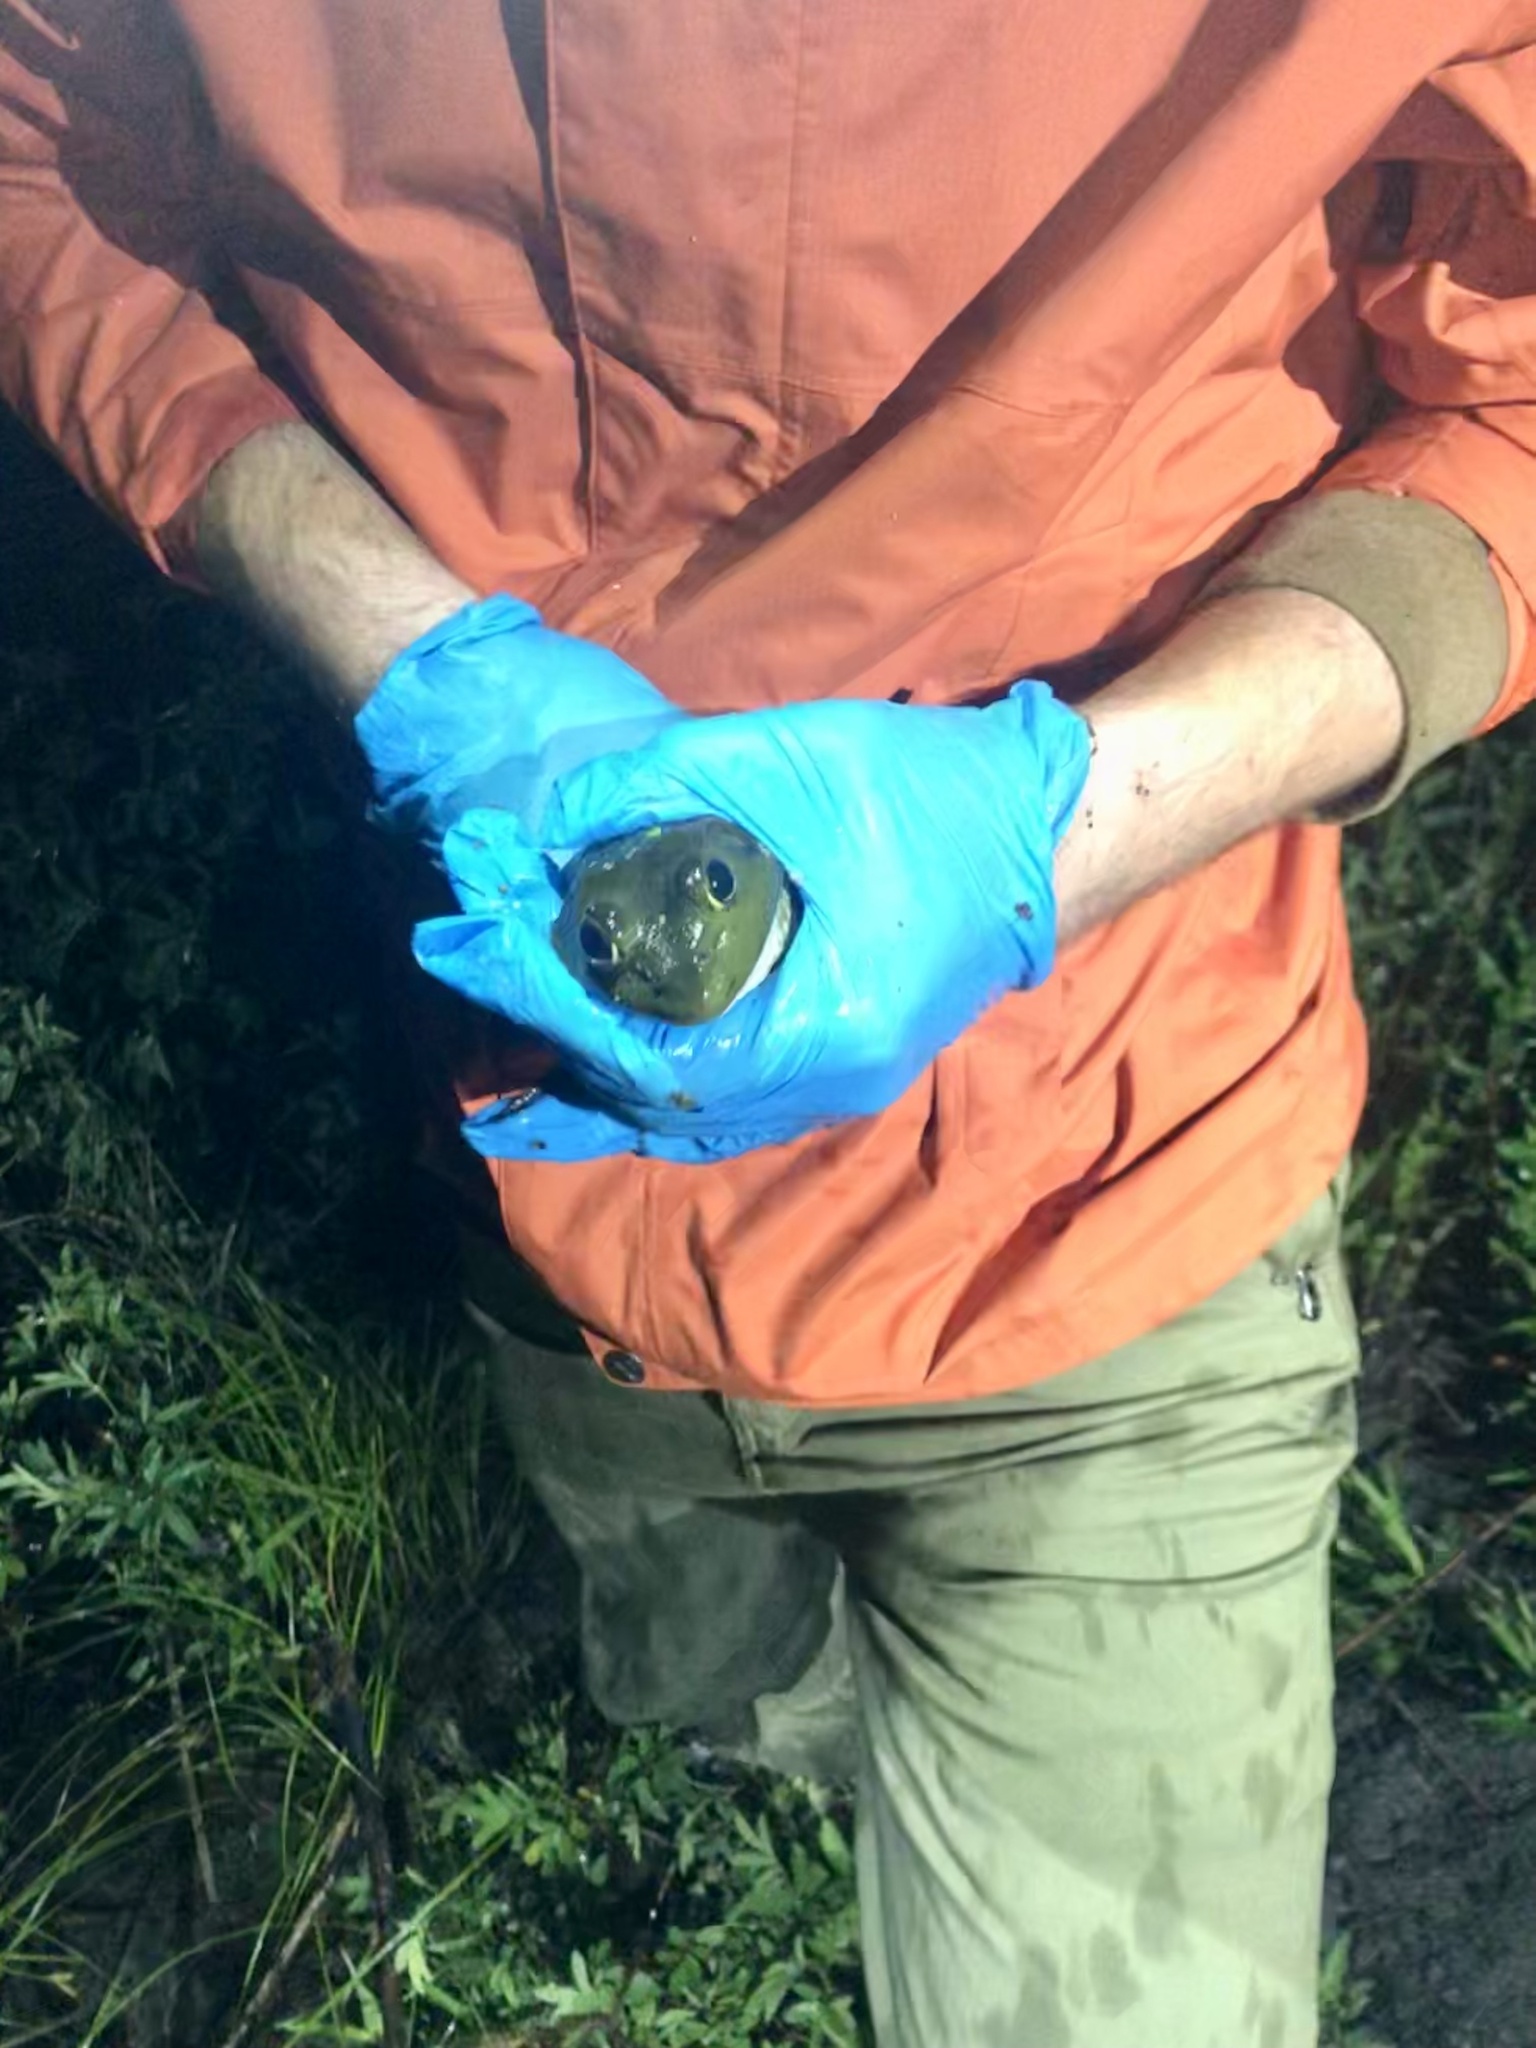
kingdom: Animalia
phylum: Chordata
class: Amphibia
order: Anura
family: Ranidae
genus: Lithobates
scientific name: Lithobates catesbeianus
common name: American bullfrog
